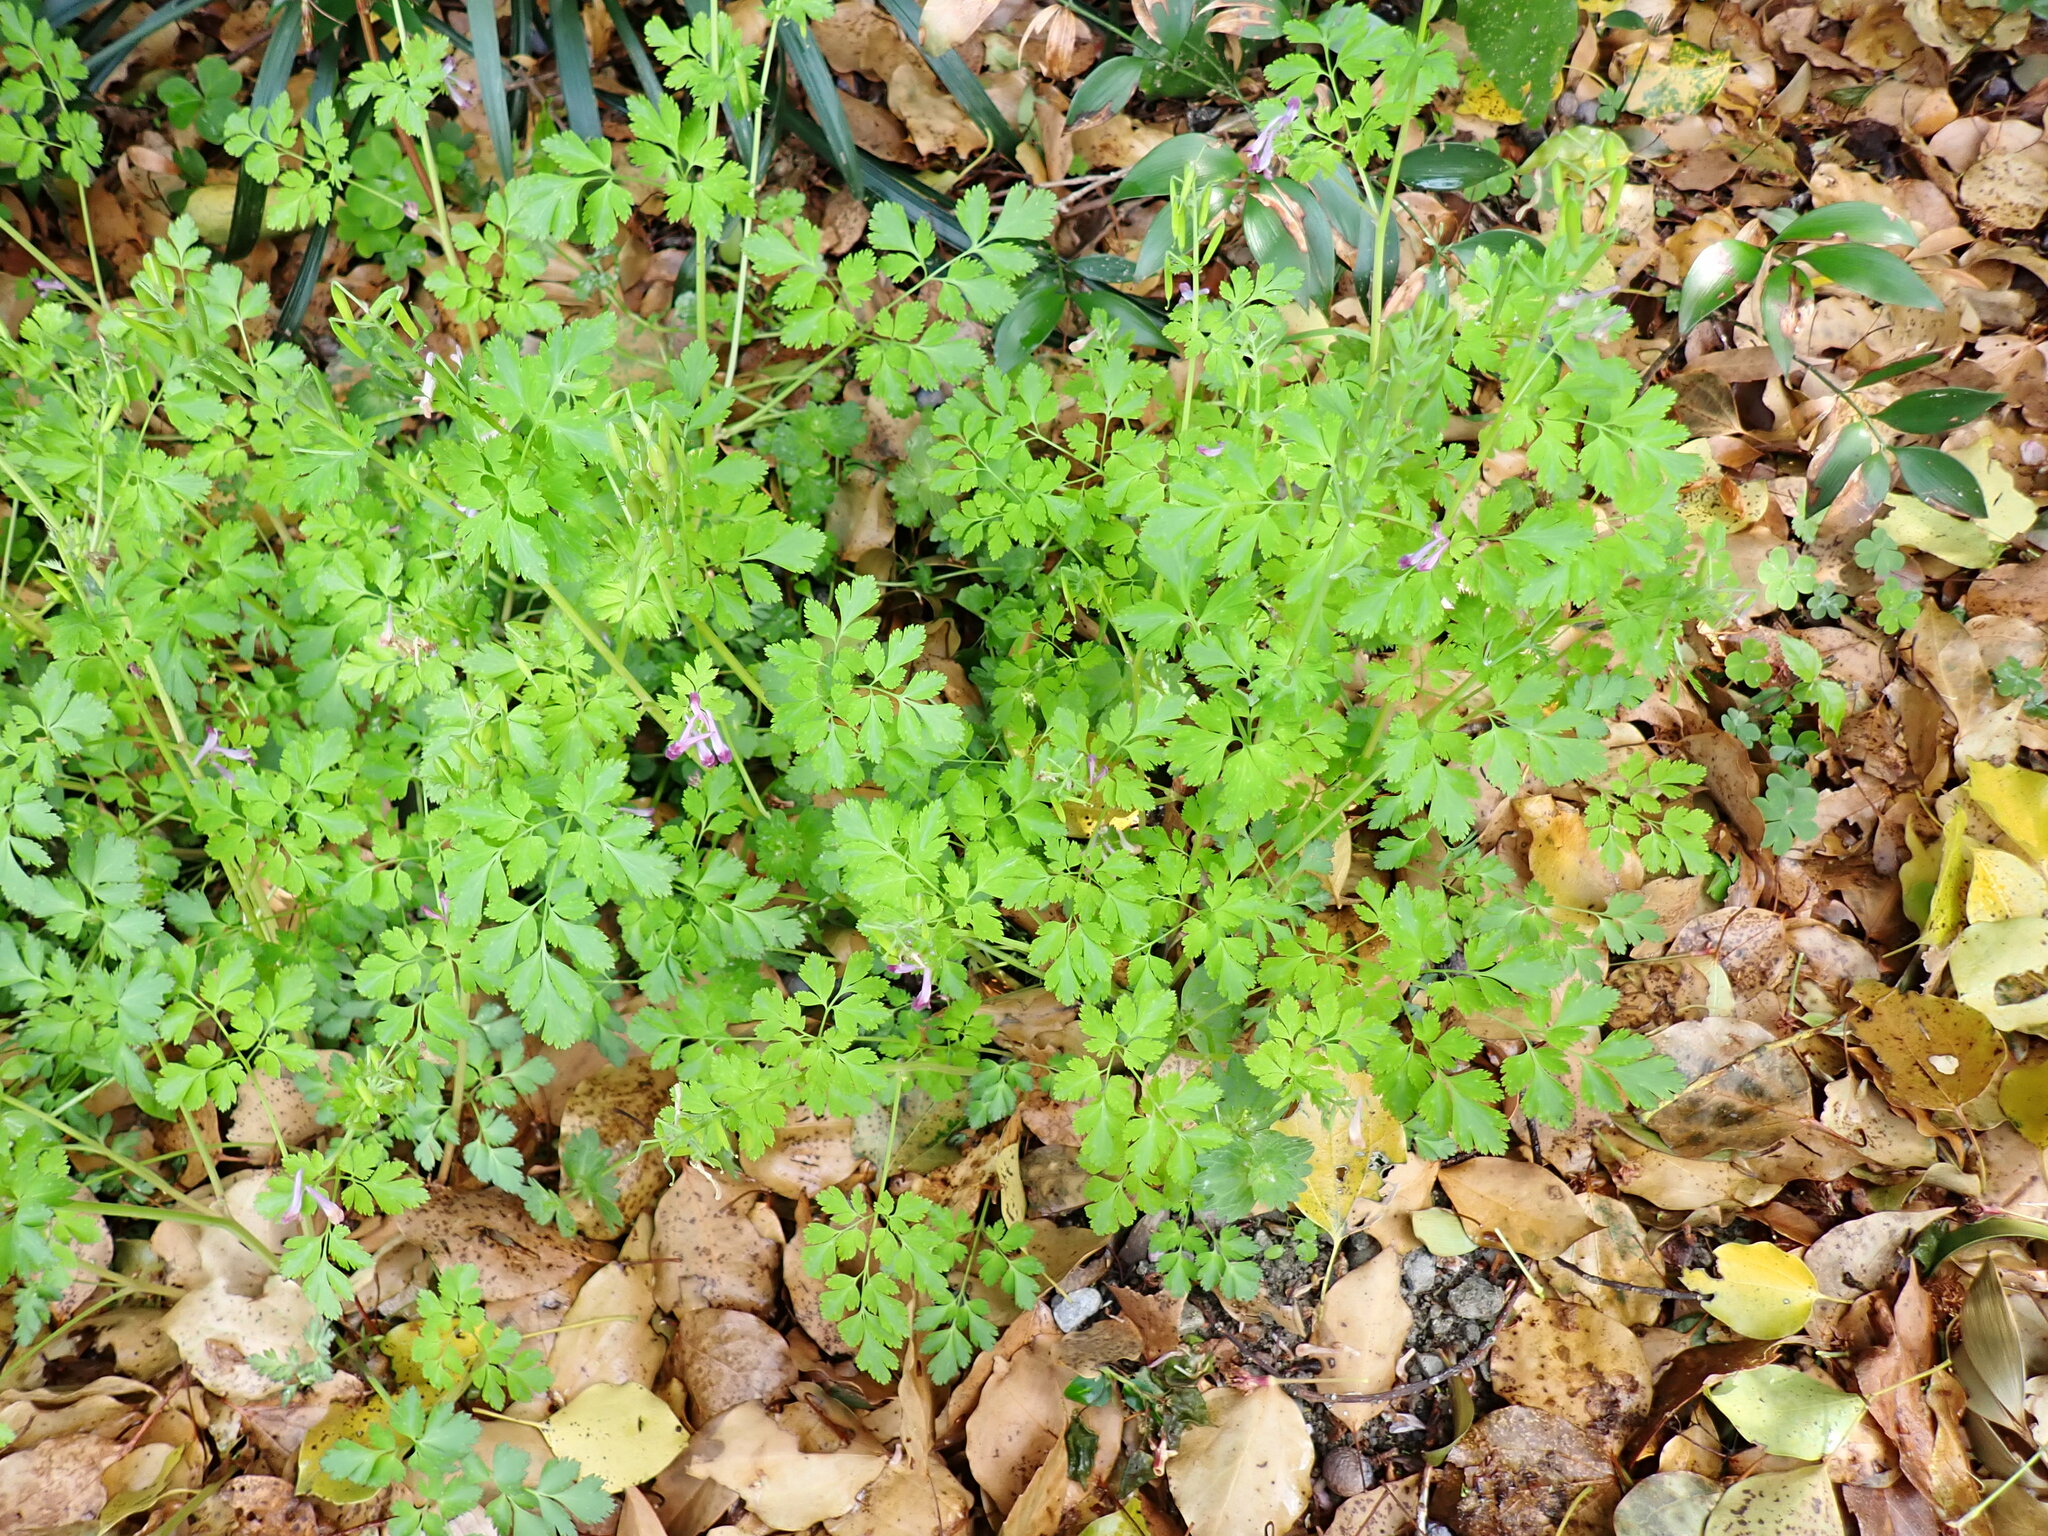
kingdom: Plantae
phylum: Tracheophyta
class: Magnoliopsida
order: Ranunculales
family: Papaveraceae
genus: Corydalis
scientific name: Corydalis incisa
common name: Incised fumewort
